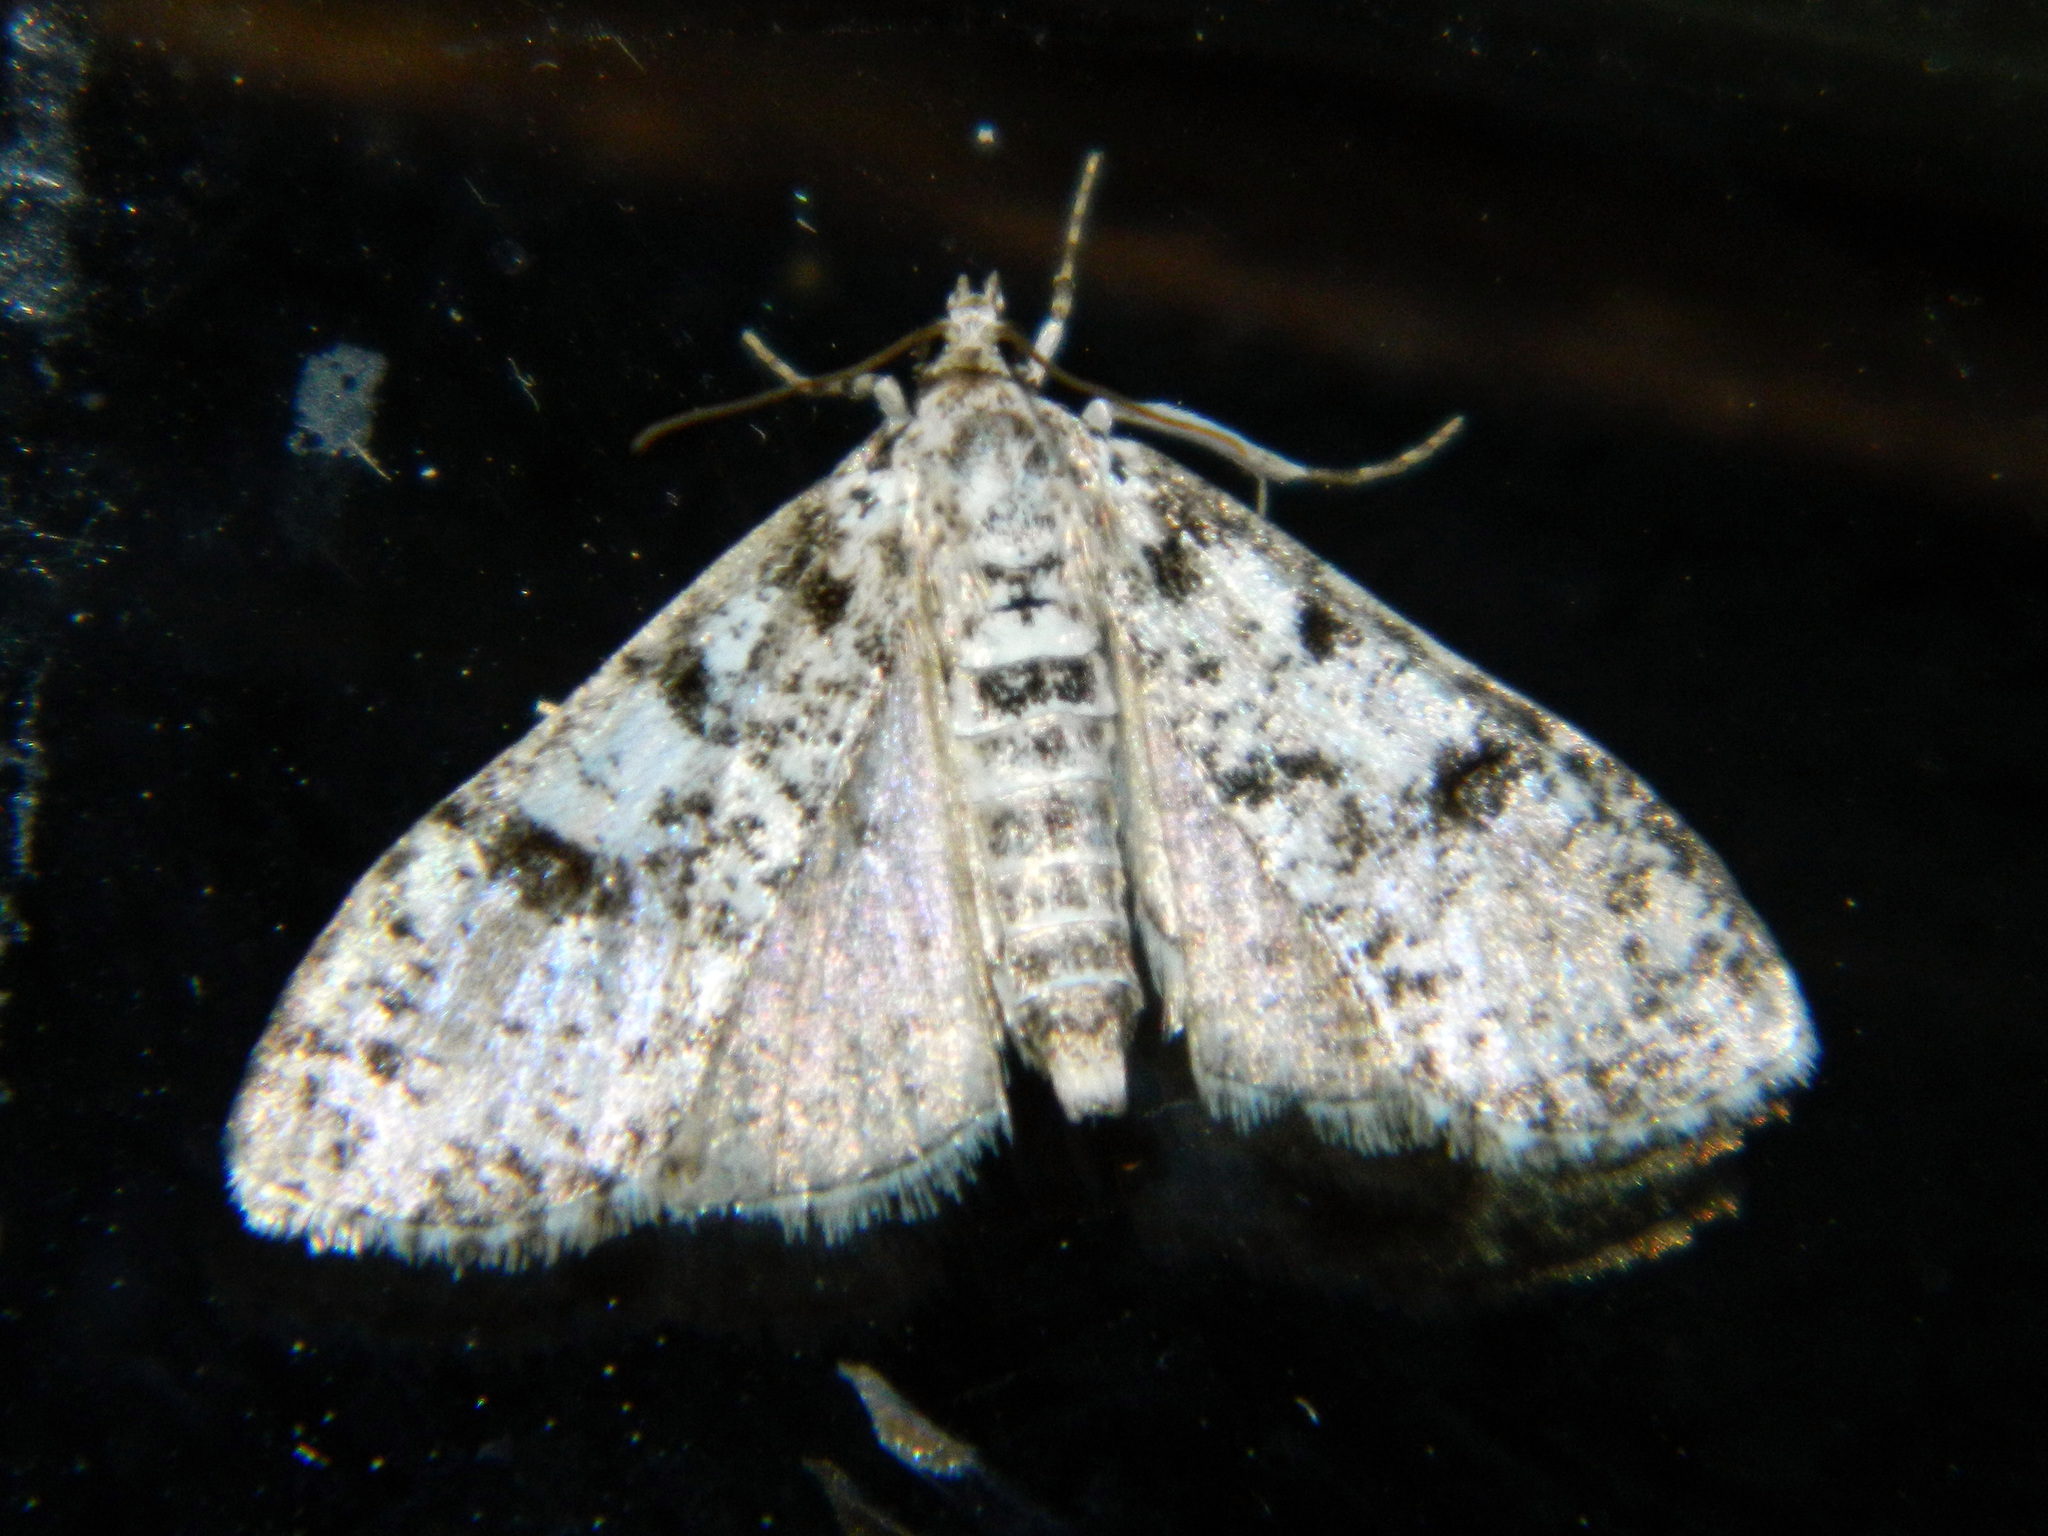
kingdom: Animalia
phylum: Arthropoda
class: Insecta
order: Lepidoptera
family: Crambidae
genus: Palpita
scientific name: Palpita magniferalis
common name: Splendid palpita moth
